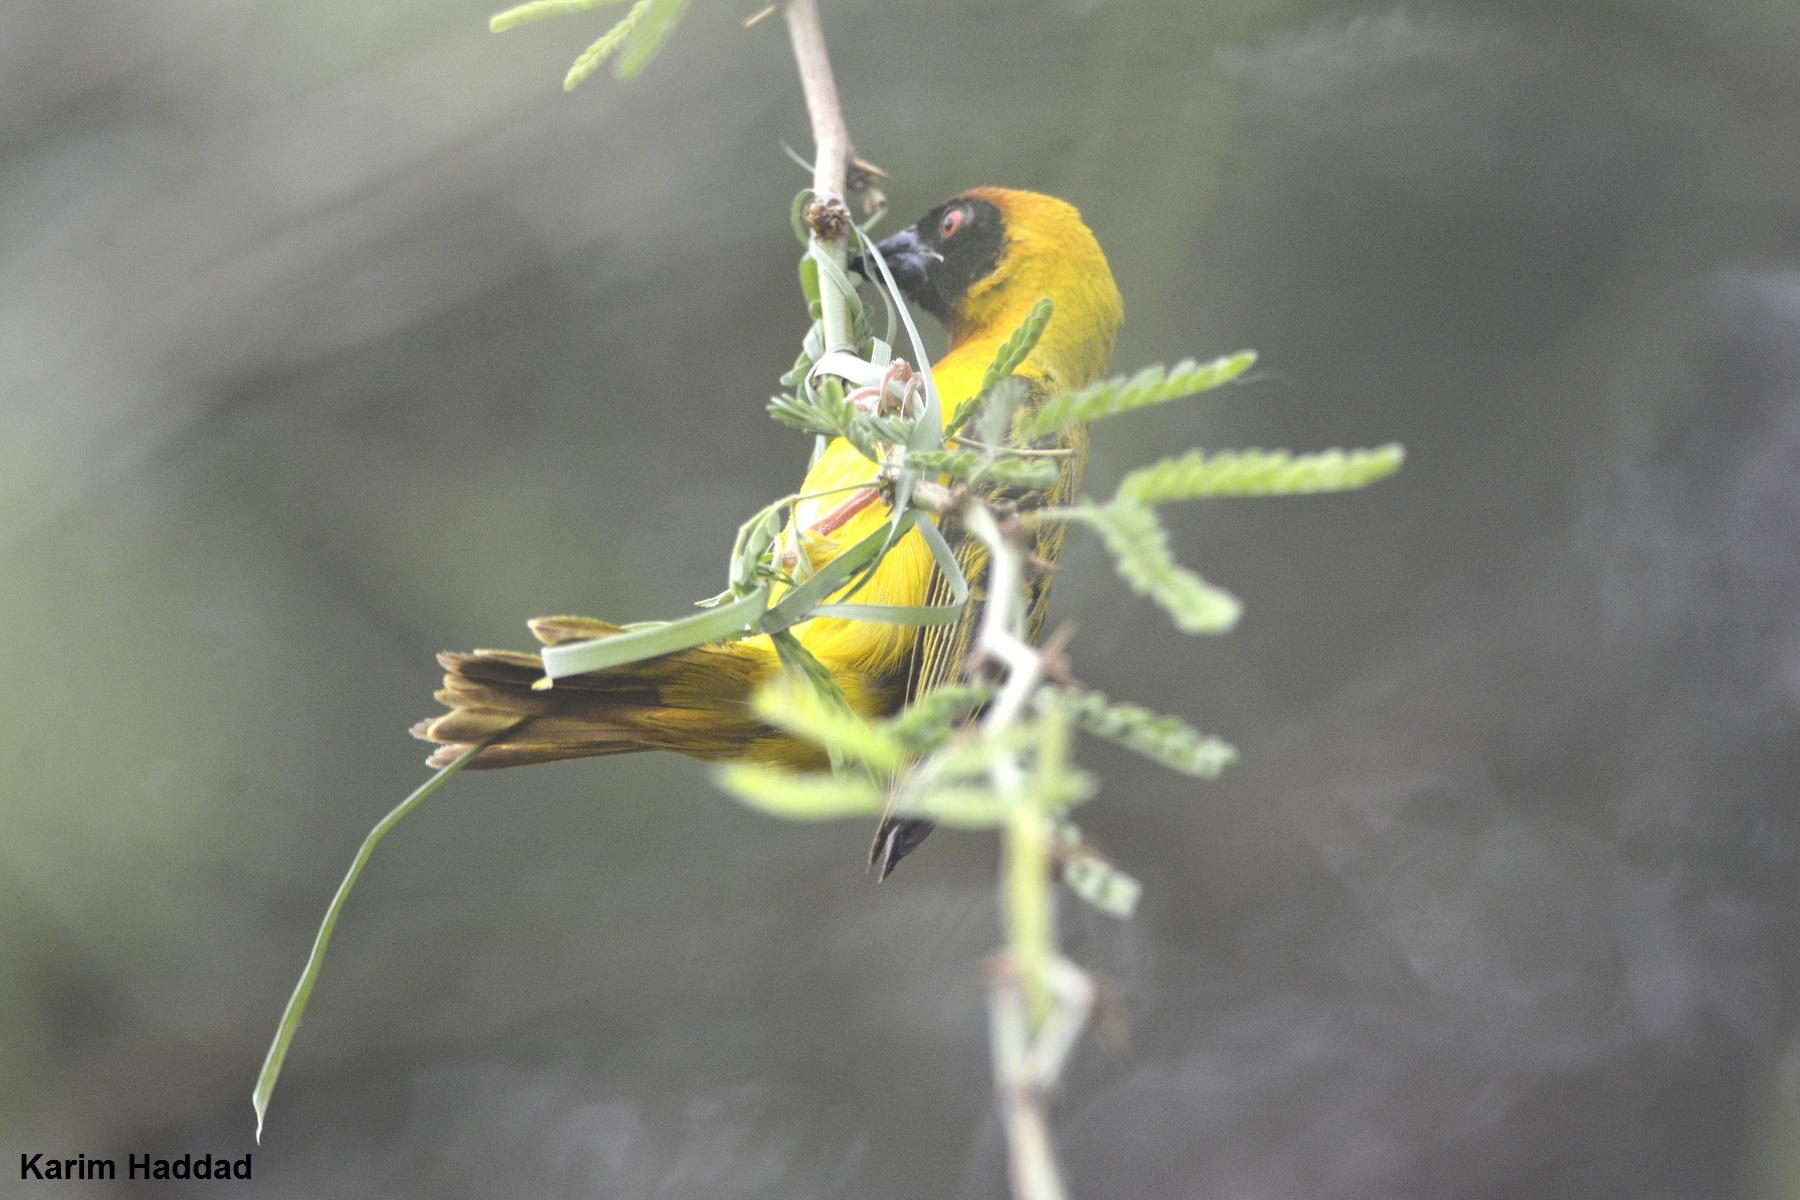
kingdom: Animalia
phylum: Chordata
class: Aves
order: Passeriformes
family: Ploceidae
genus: Ploceus
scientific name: Ploceus vitellinus
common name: Vitelline masked weaver
